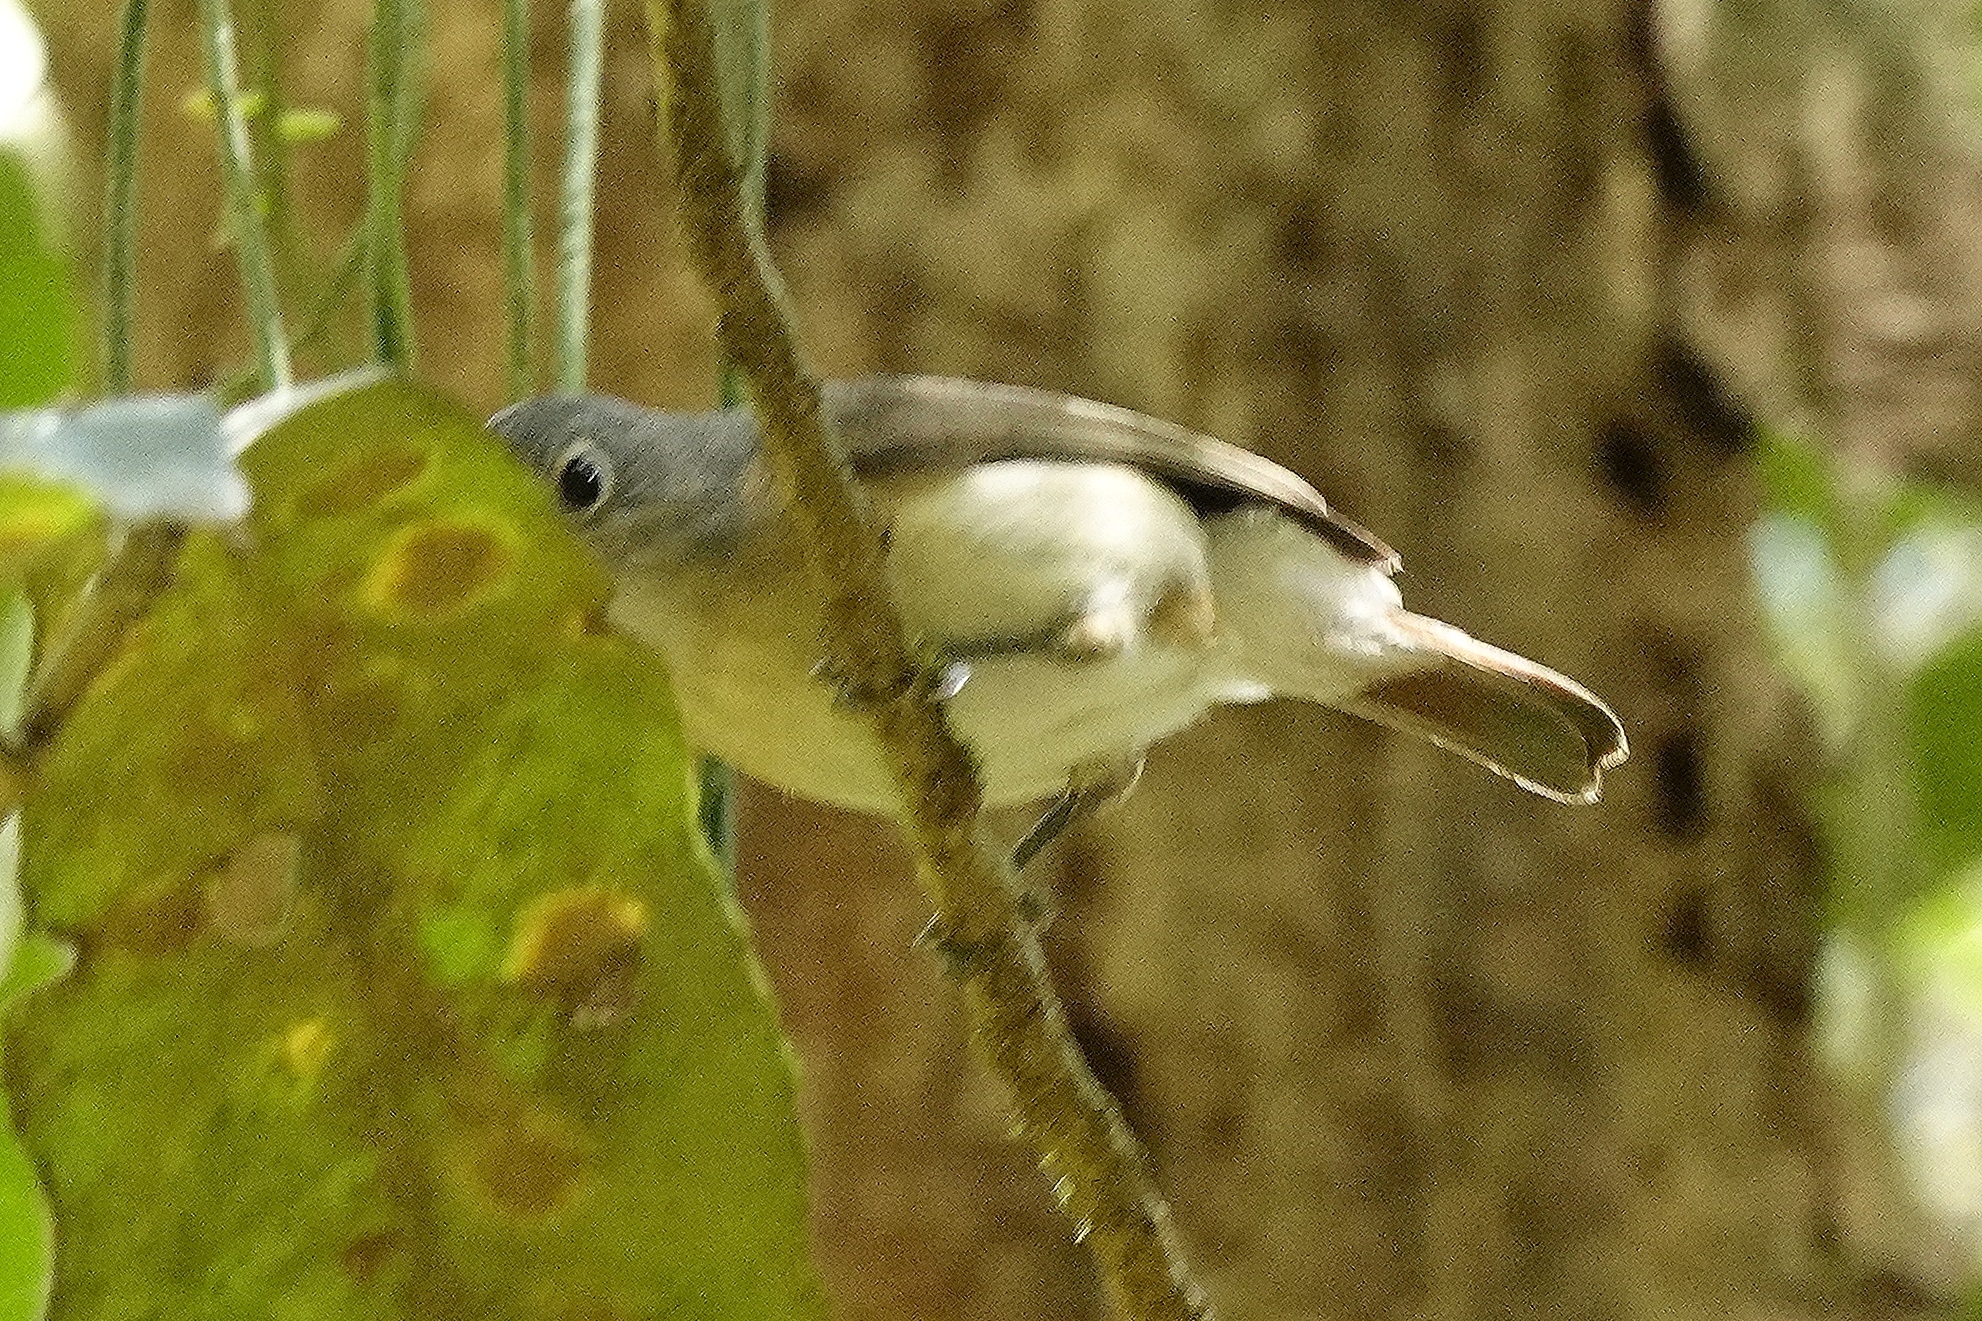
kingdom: Animalia
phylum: Chordata
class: Aves
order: Passeriformes
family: Vangidae
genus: Calicalicus
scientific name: Calicalicus madagascariensis
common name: Red-tailed vanga
